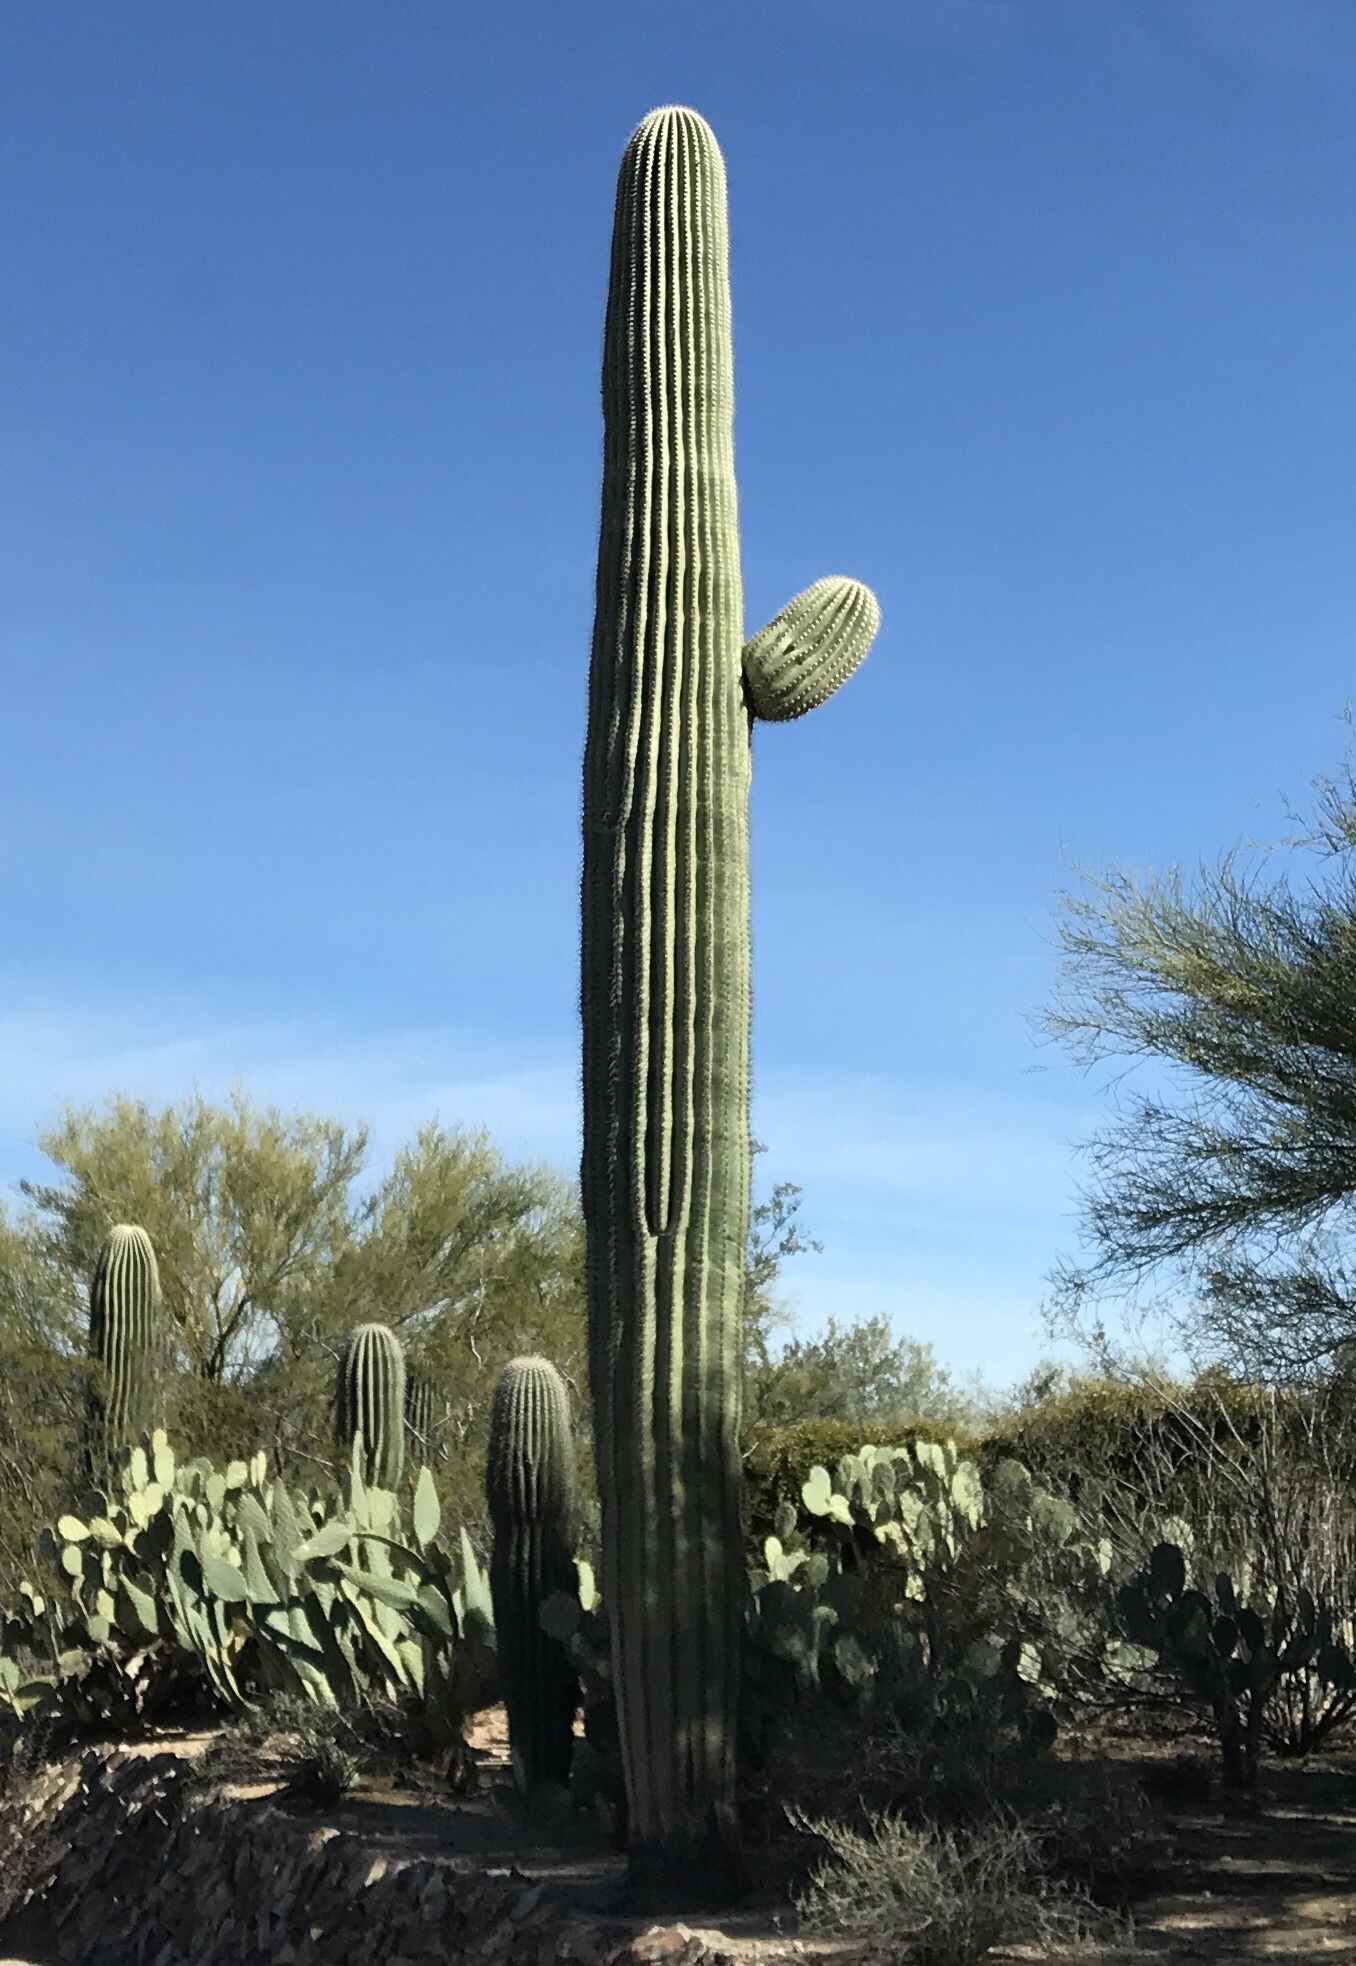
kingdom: Plantae
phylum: Tracheophyta
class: Magnoliopsida
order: Caryophyllales
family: Cactaceae
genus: Carnegiea
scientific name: Carnegiea gigantea
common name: Saguaro
